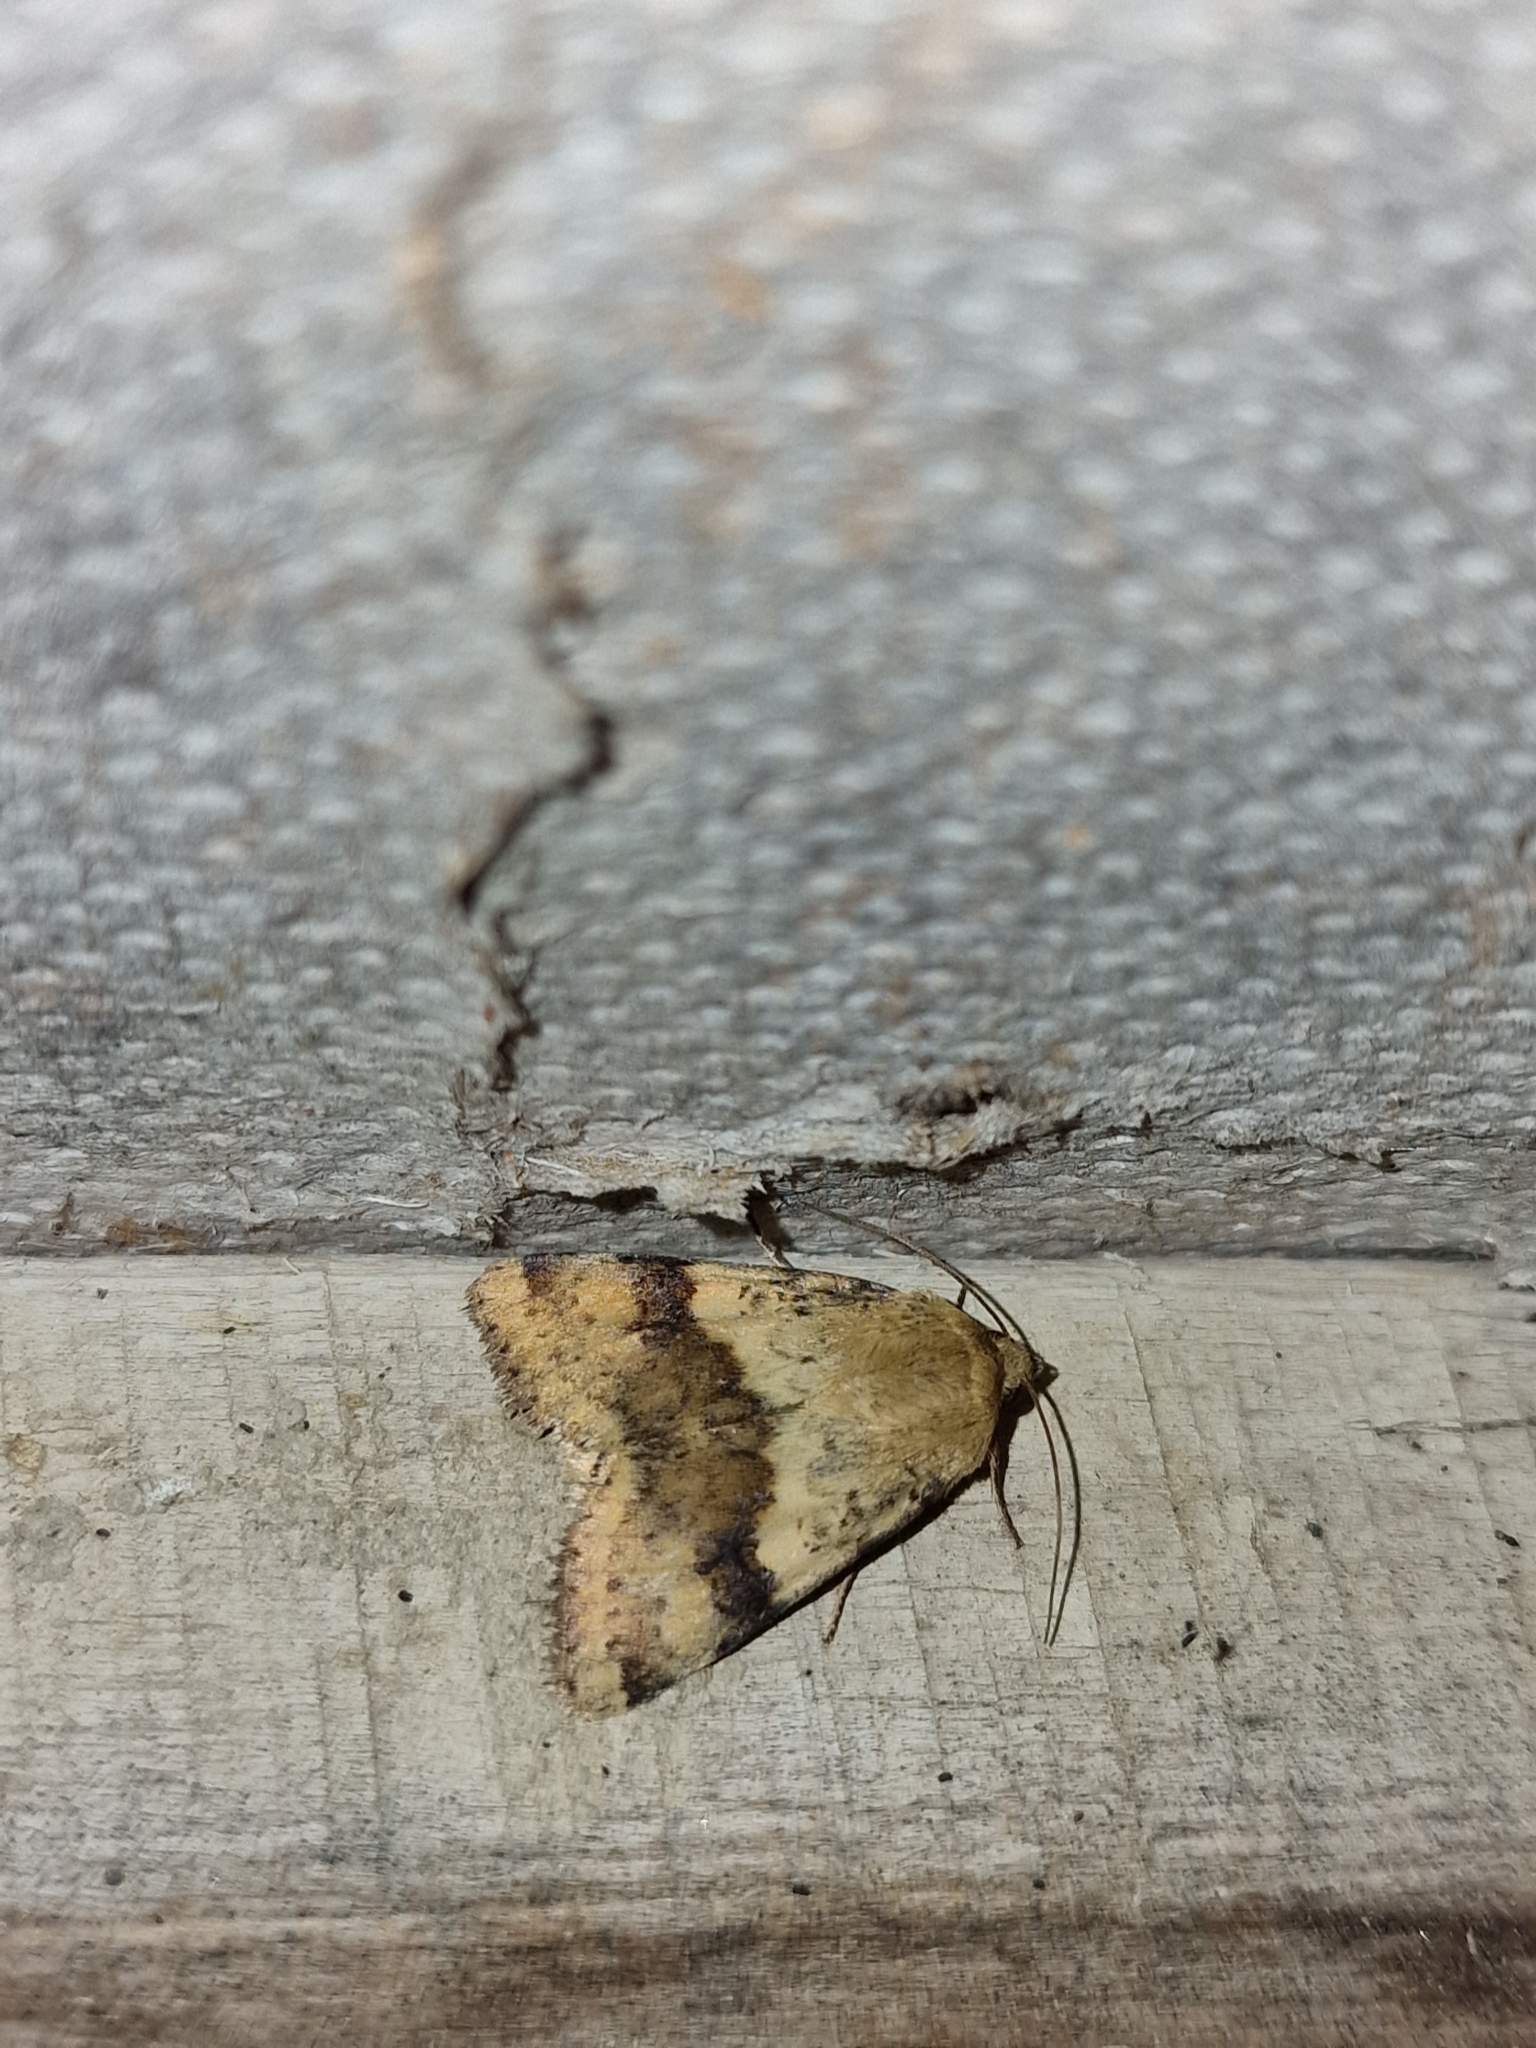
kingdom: Animalia
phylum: Arthropoda
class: Insecta
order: Lepidoptera
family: Noctuidae
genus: Heliothis
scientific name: Heliothis viriplaca
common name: Marbled clover
